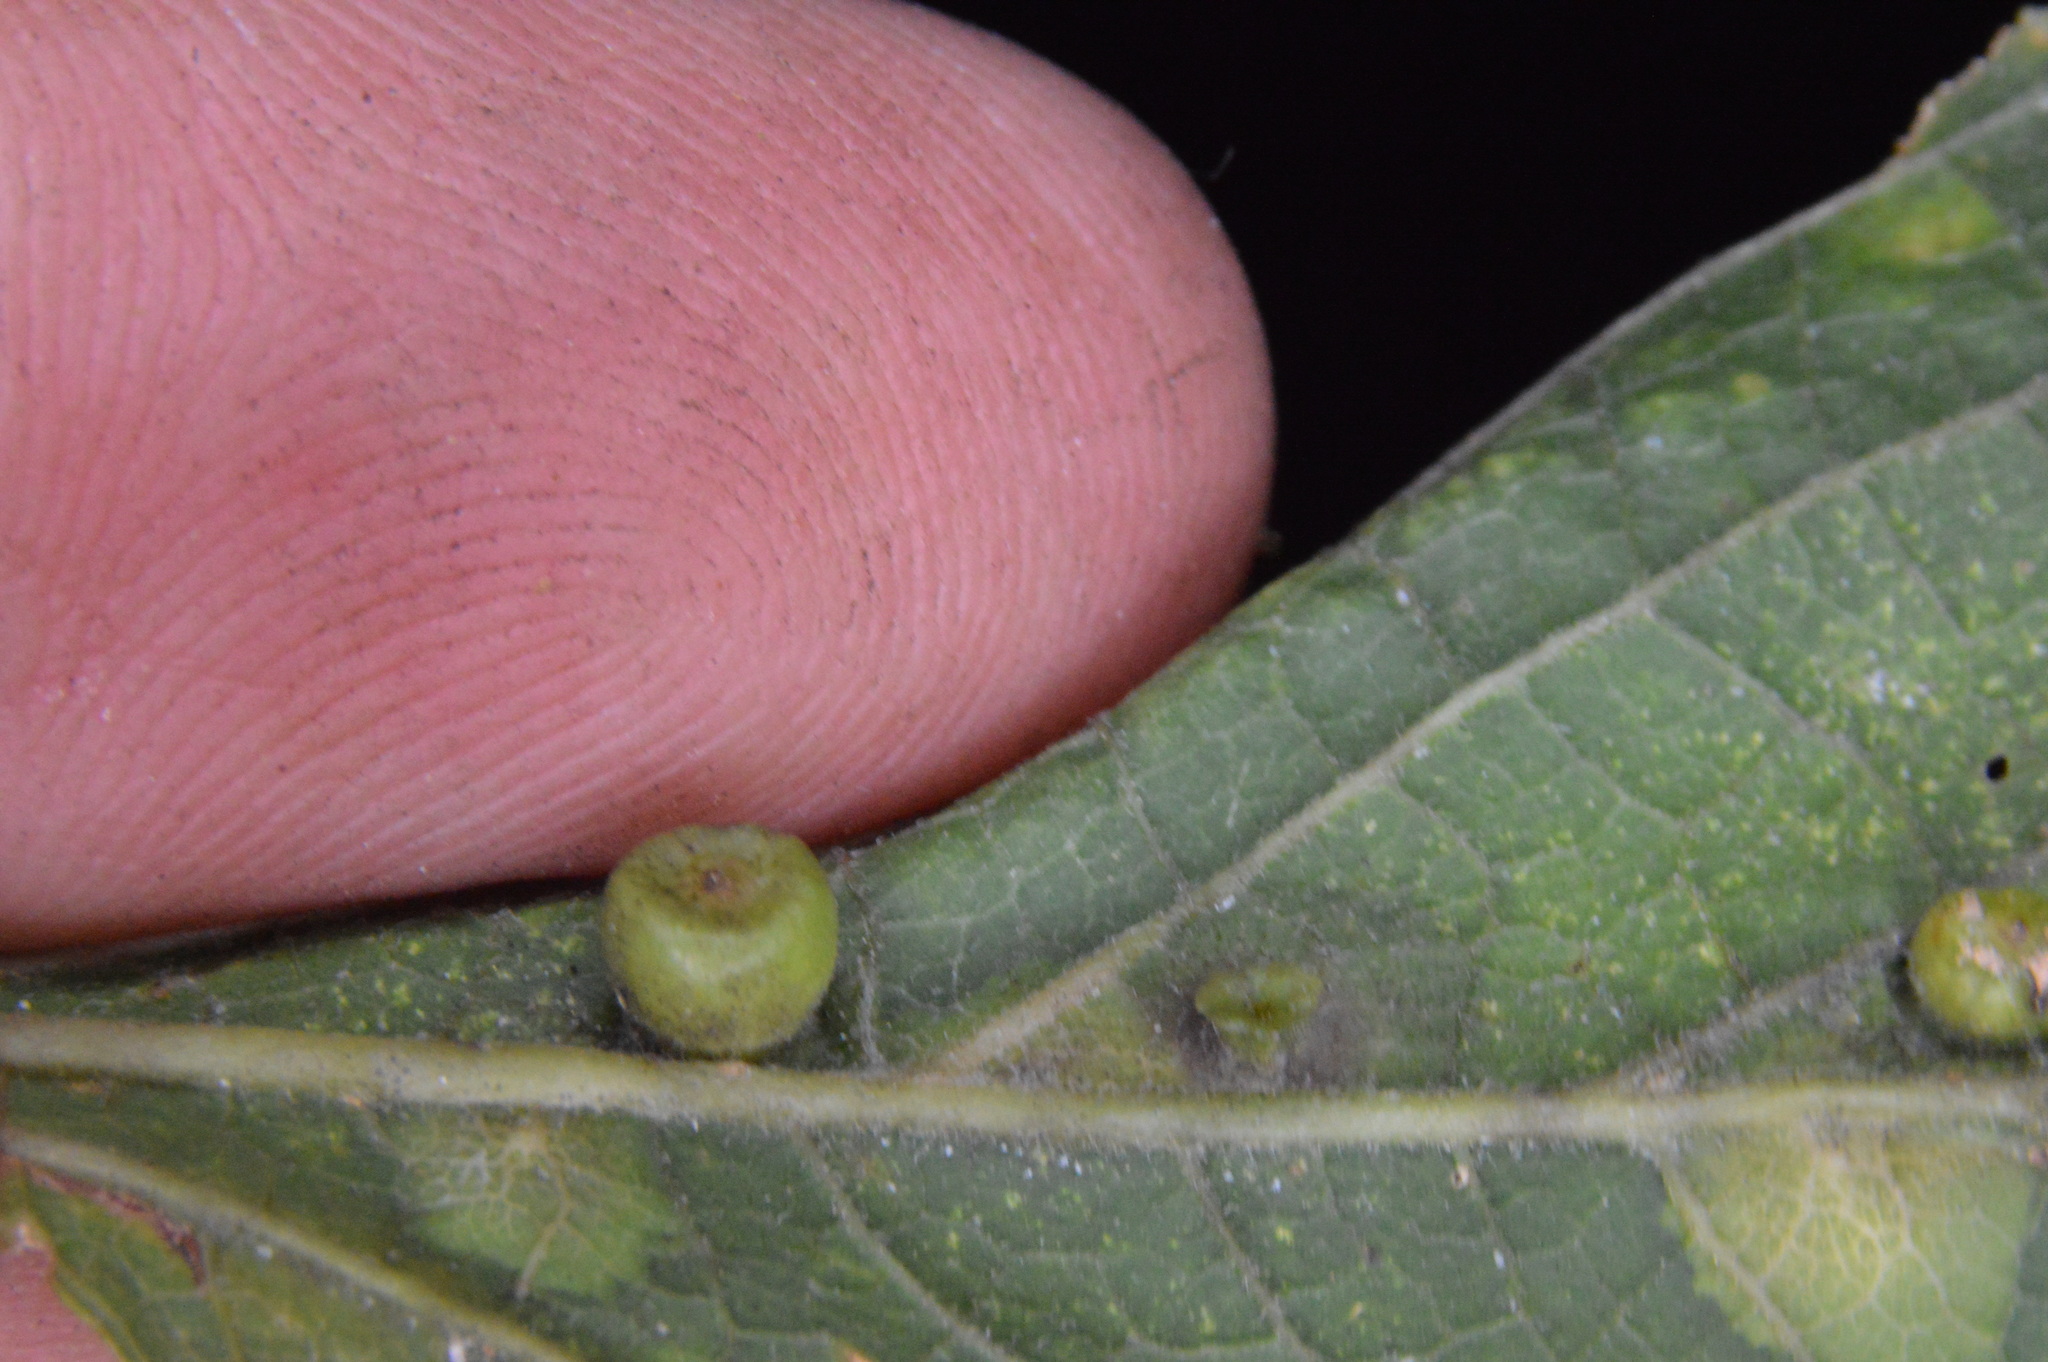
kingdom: Animalia
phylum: Arthropoda
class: Insecta
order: Hemiptera
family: Aphalaridae
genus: Pachypsylla
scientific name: Pachypsylla celtidisasterisca
